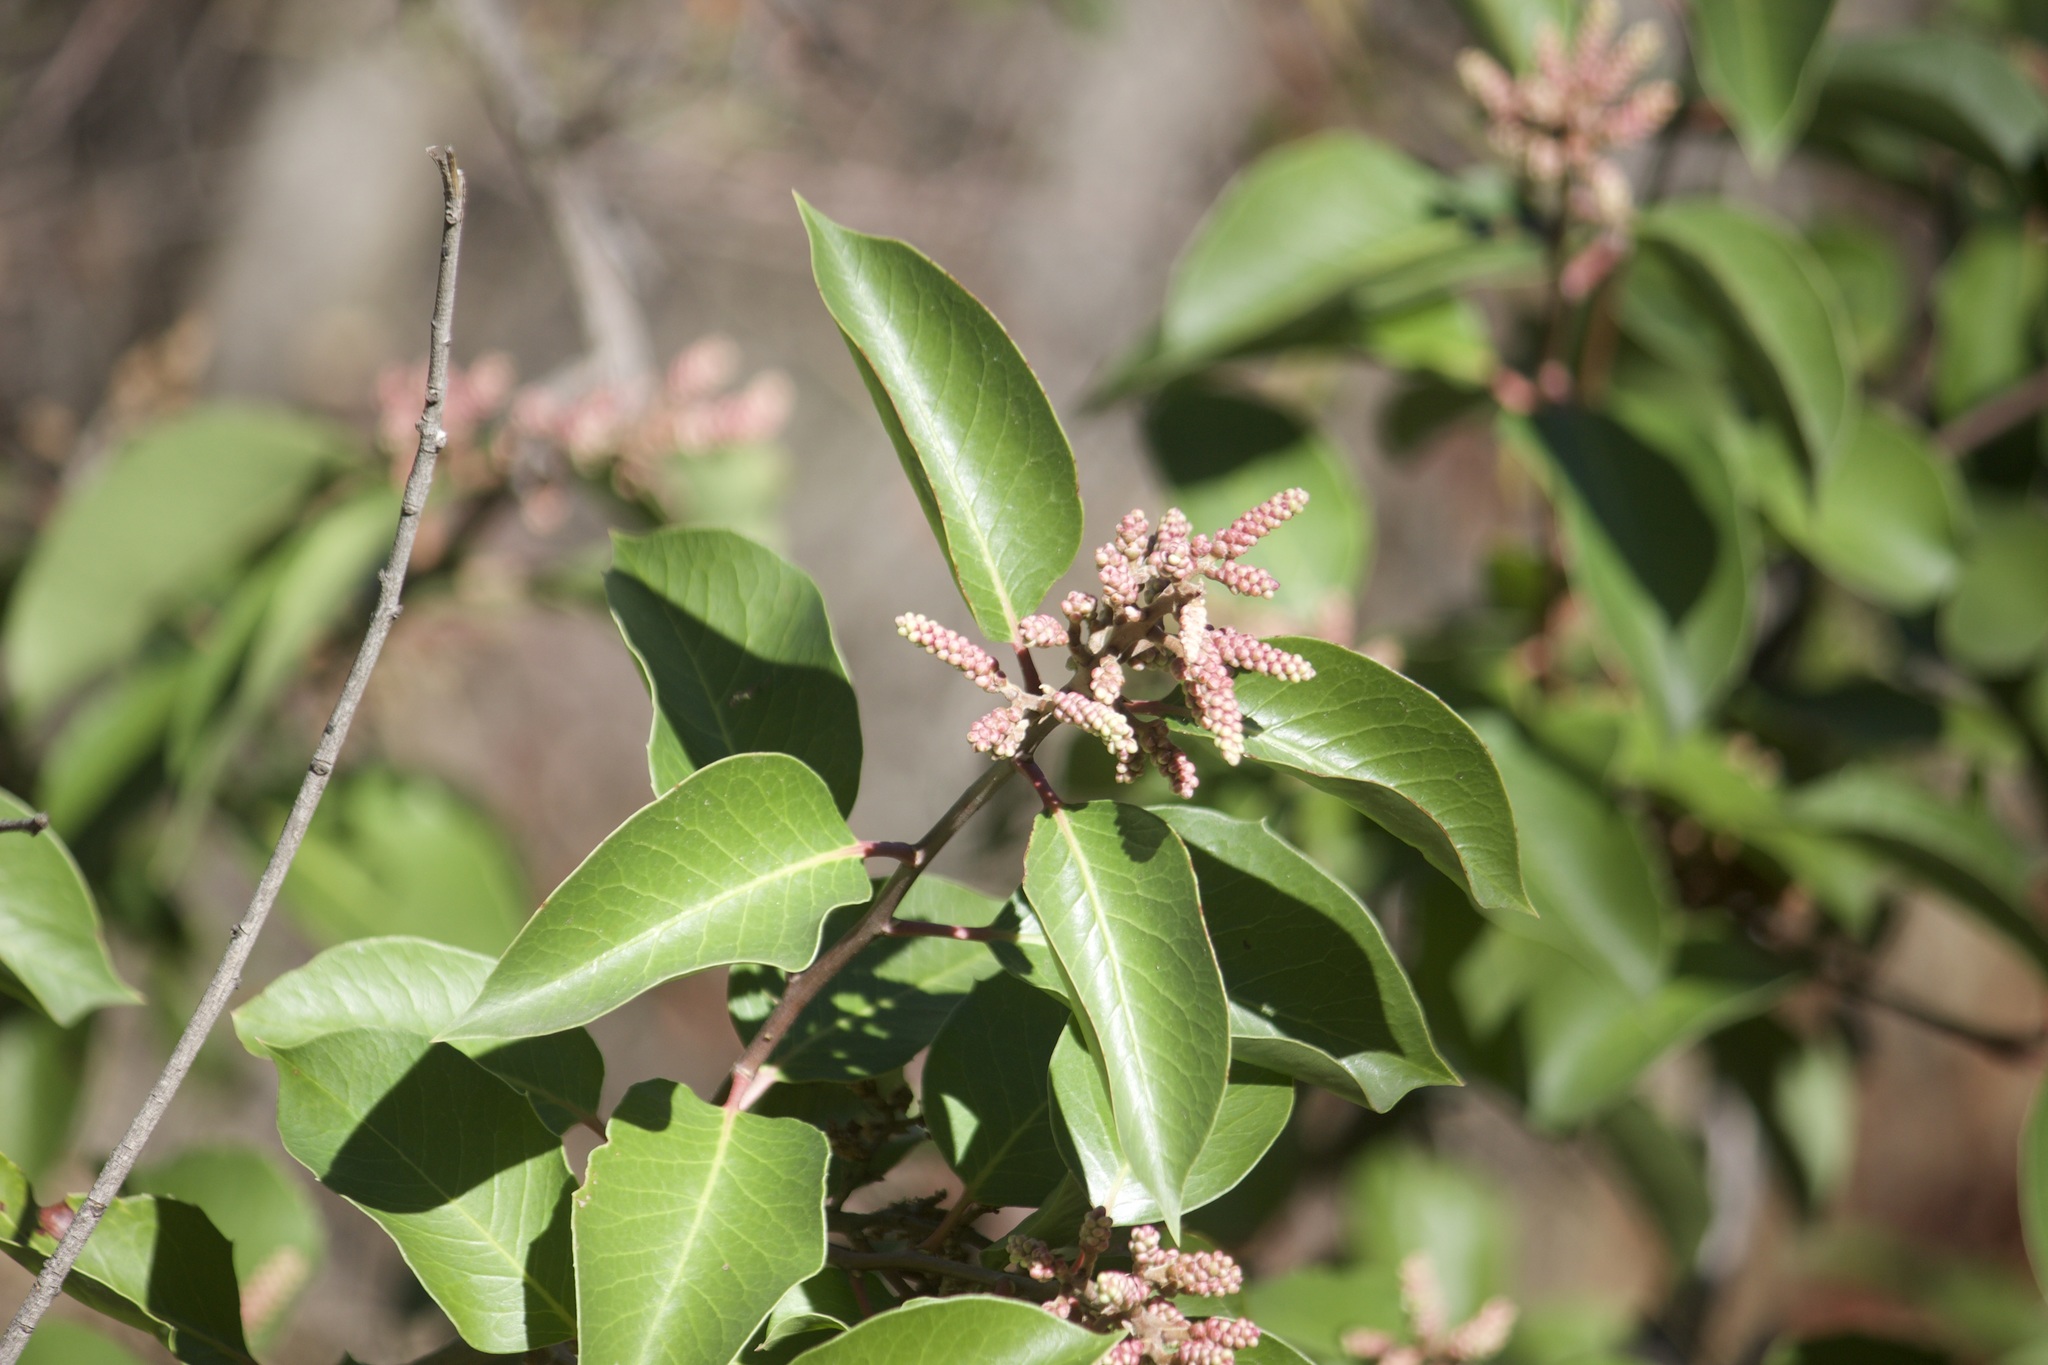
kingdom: Plantae
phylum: Tracheophyta
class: Magnoliopsida
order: Sapindales
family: Anacardiaceae
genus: Rhus
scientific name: Rhus ovata
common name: Sugar sumac
